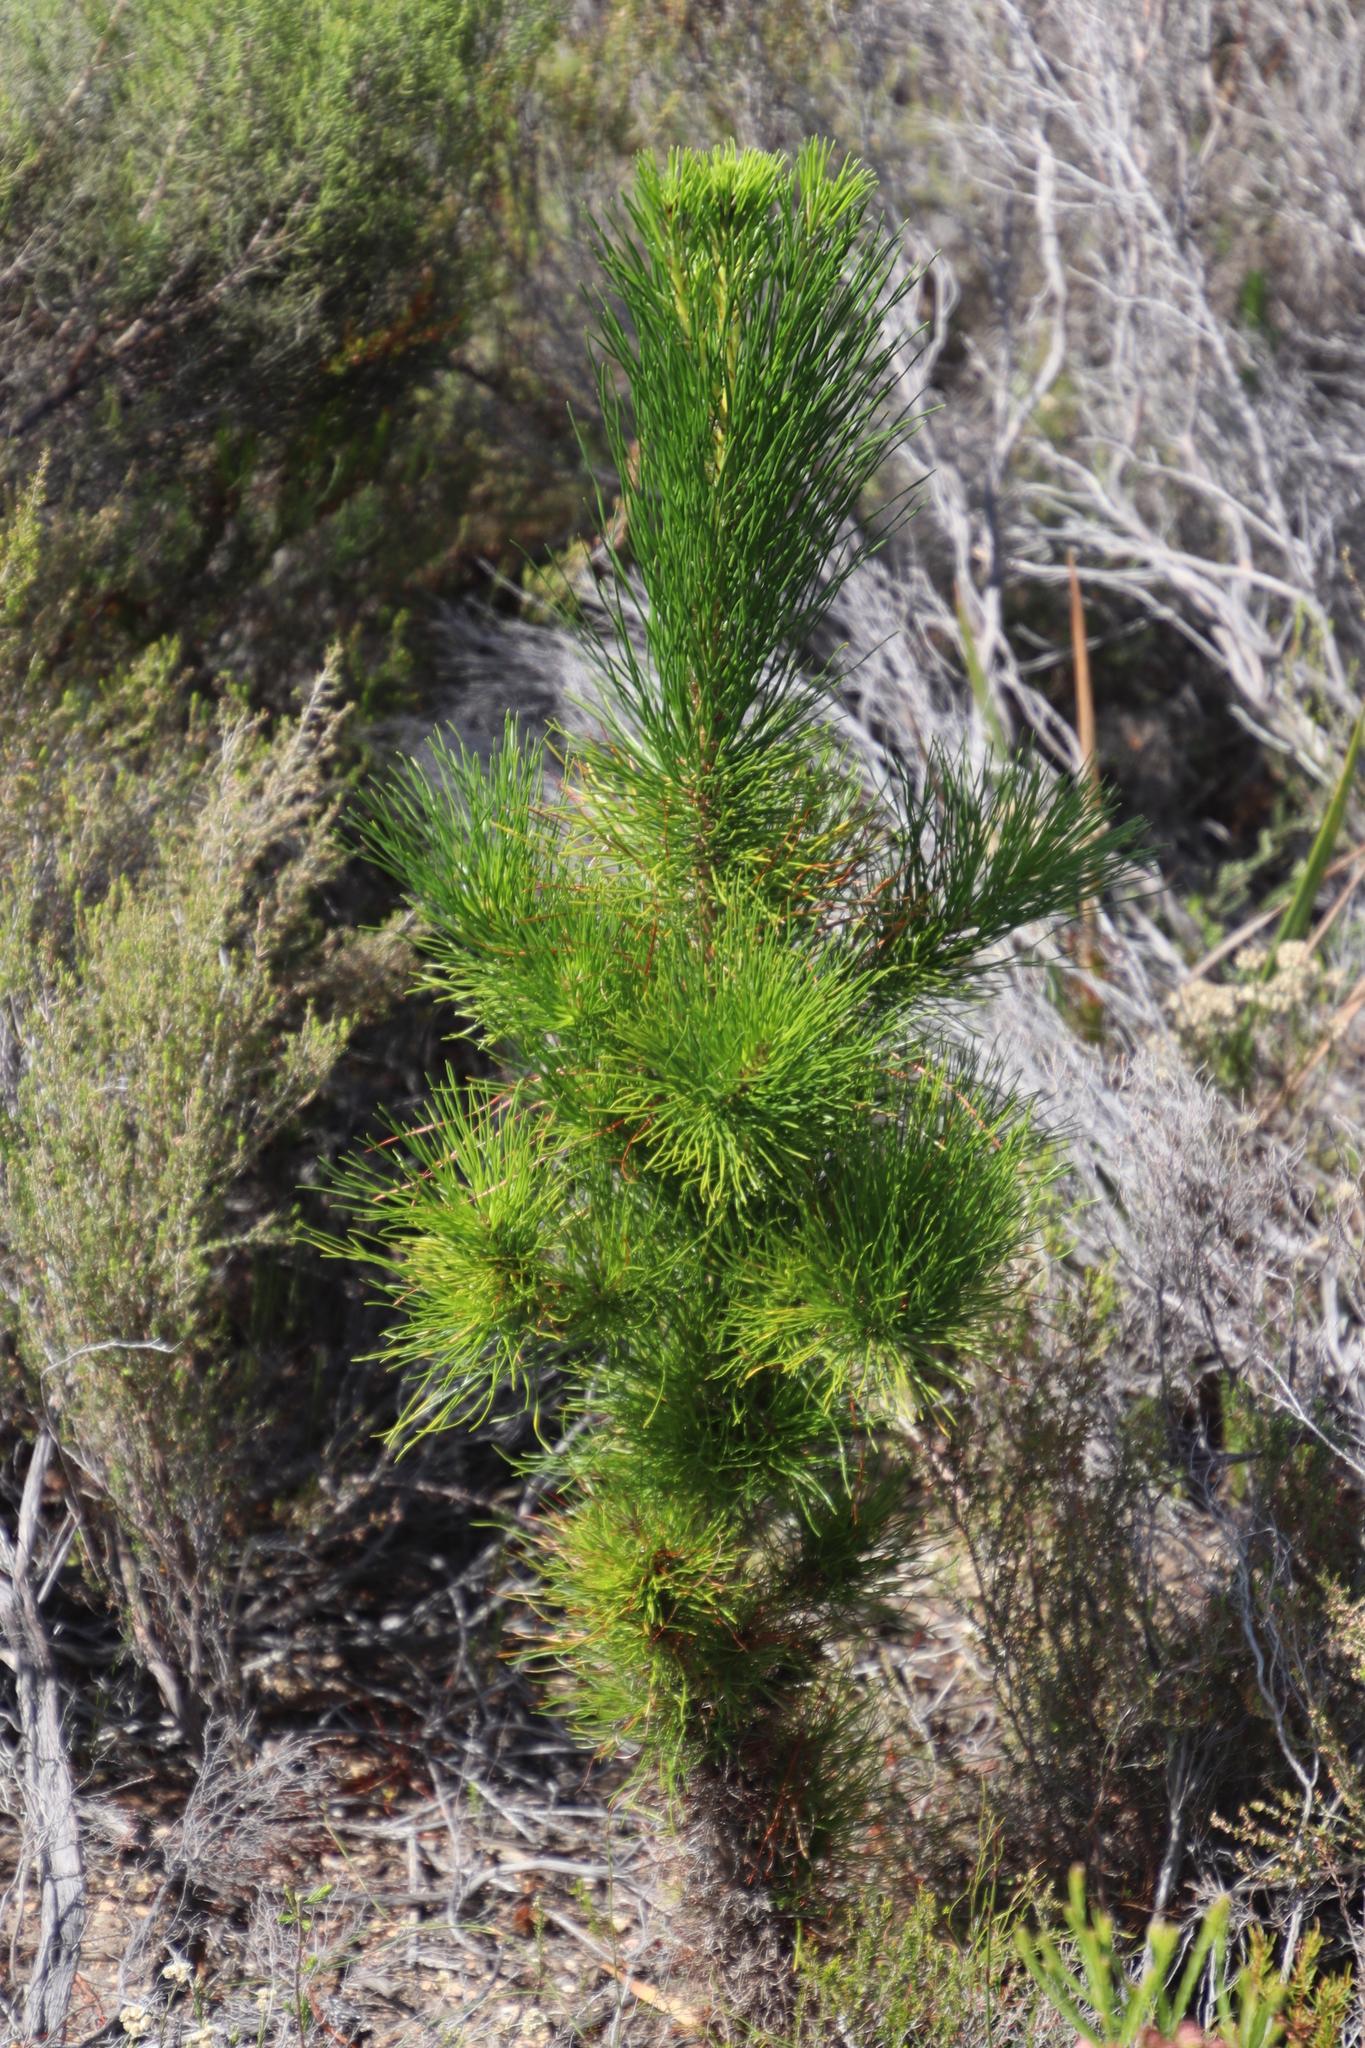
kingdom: Plantae
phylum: Tracheophyta
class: Pinopsida
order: Pinales
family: Pinaceae
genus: Pinus
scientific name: Pinus pinaster
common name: Maritime pine
